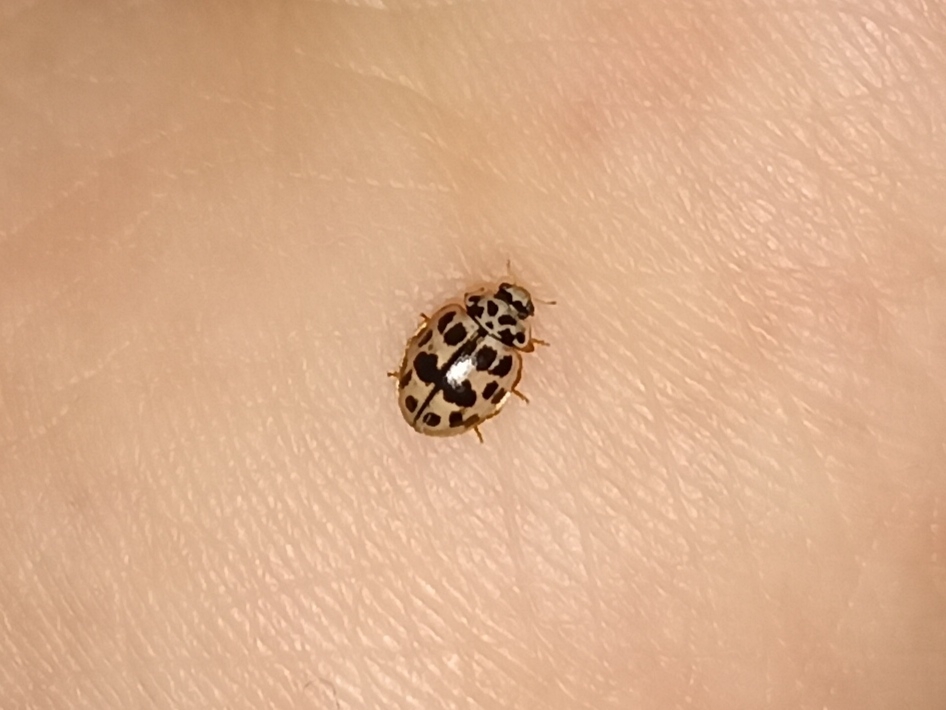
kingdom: Animalia
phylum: Arthropoda
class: Insecta
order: Coleoptera
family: Coccinellidae
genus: Oenopia
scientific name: Oenopia conglobata
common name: Ladybird beetle
